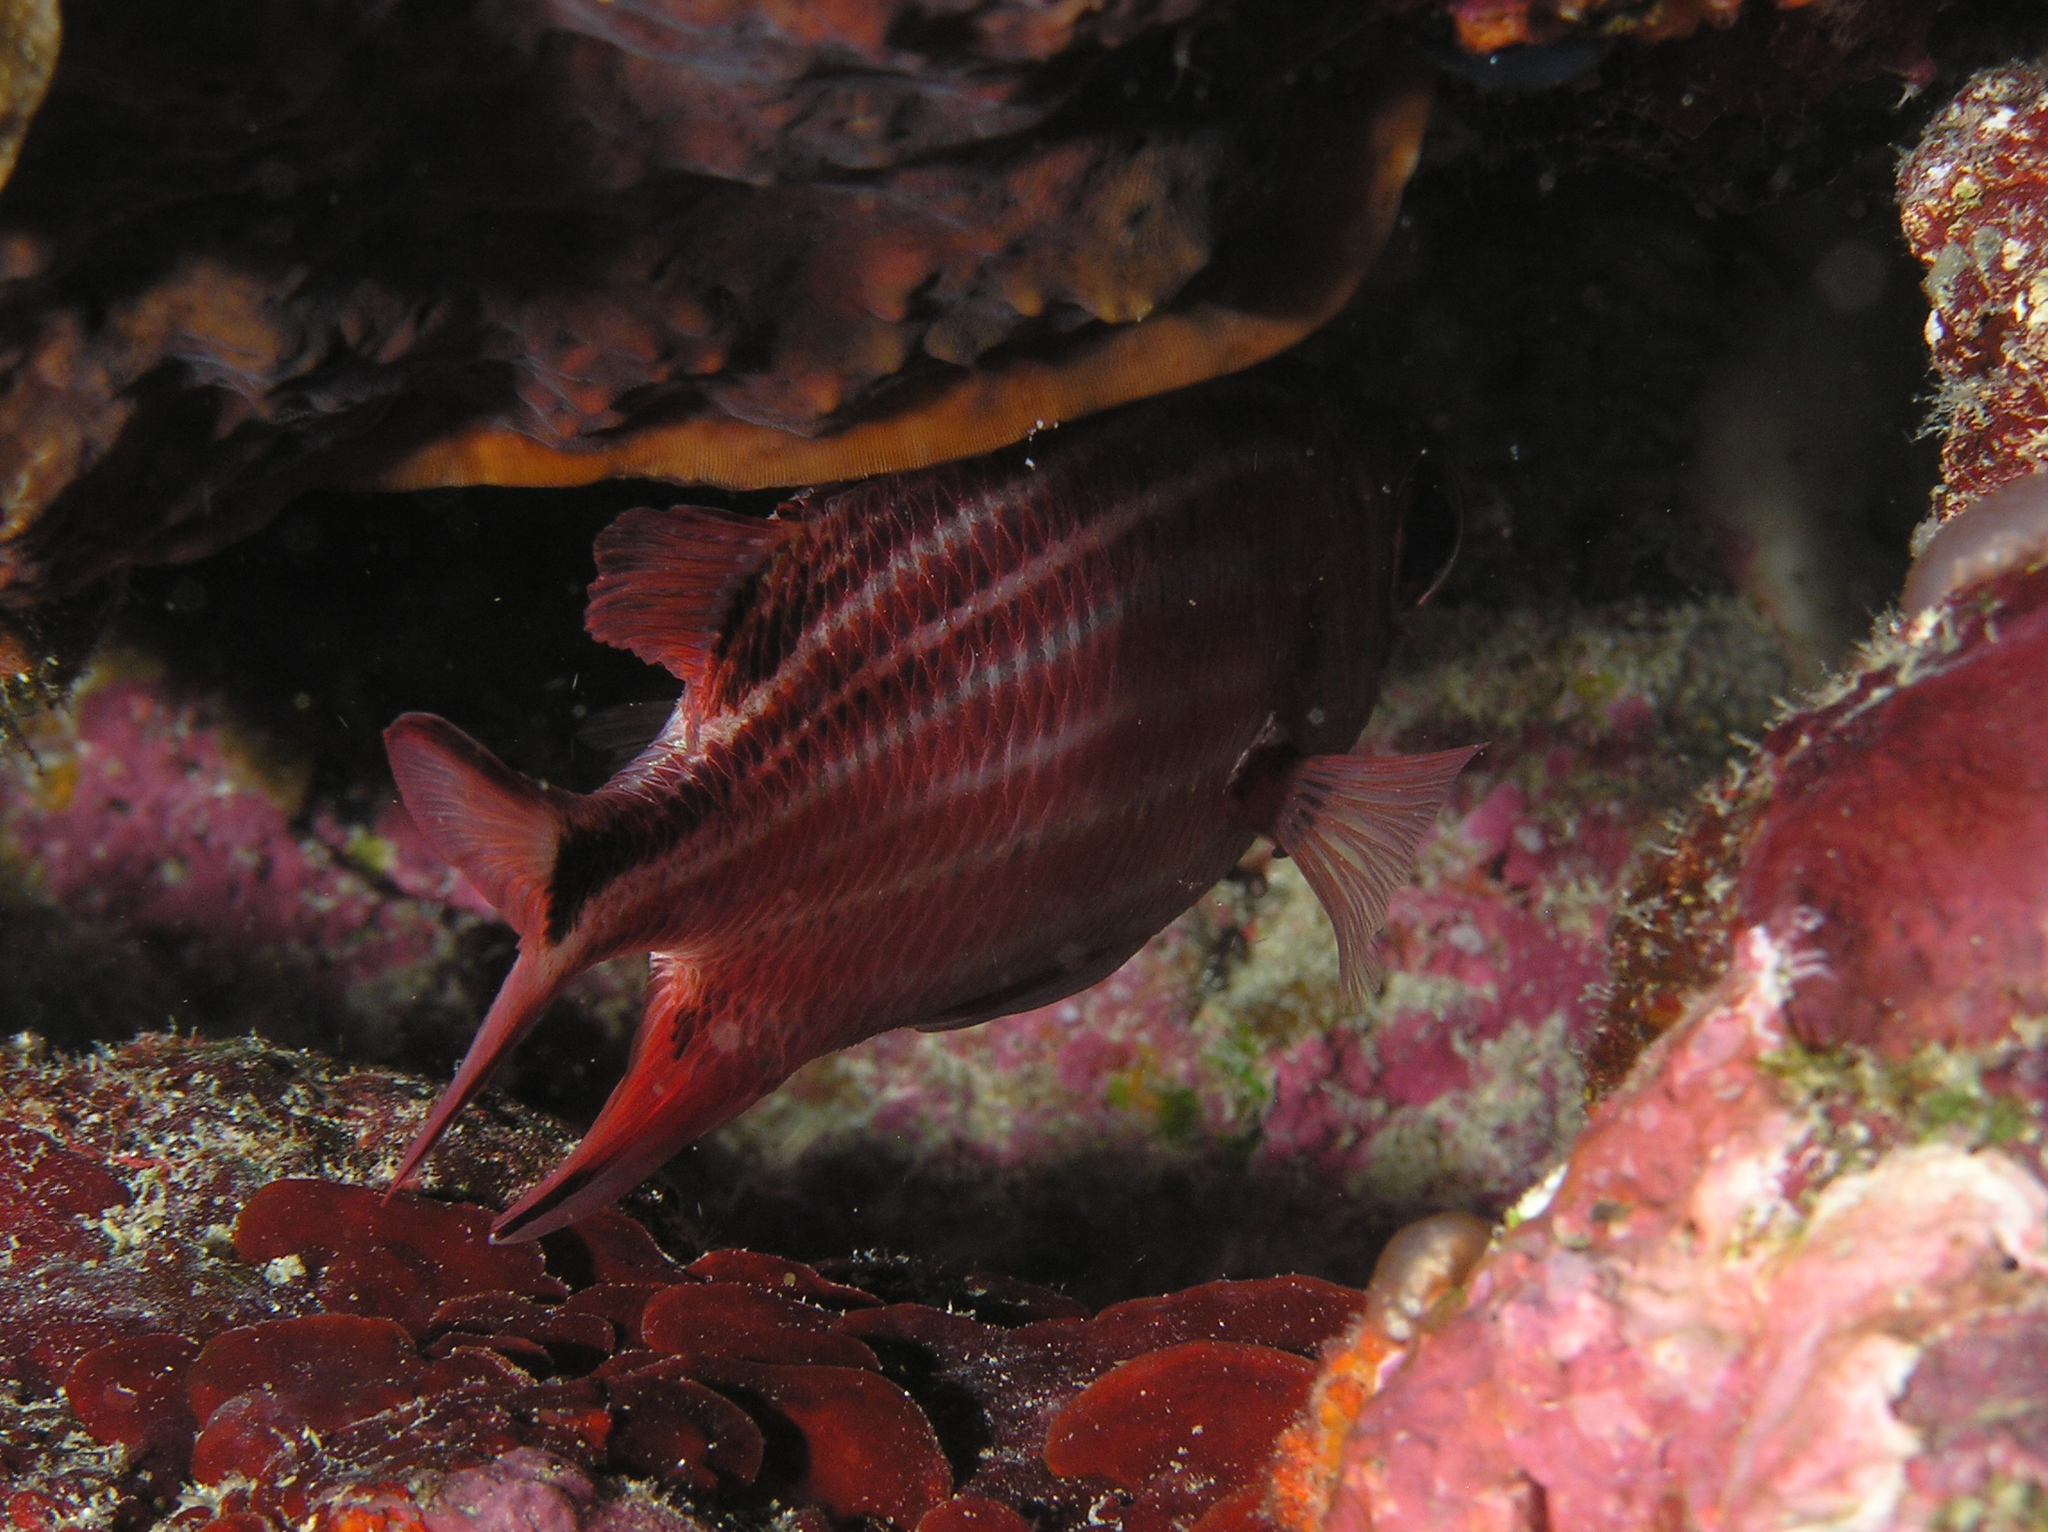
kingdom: Animalia
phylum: Chordata
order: Beryciformes
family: Holocentridae
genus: Sargocentron
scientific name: Sargocentron cornutum
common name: Horned squirrelfish
